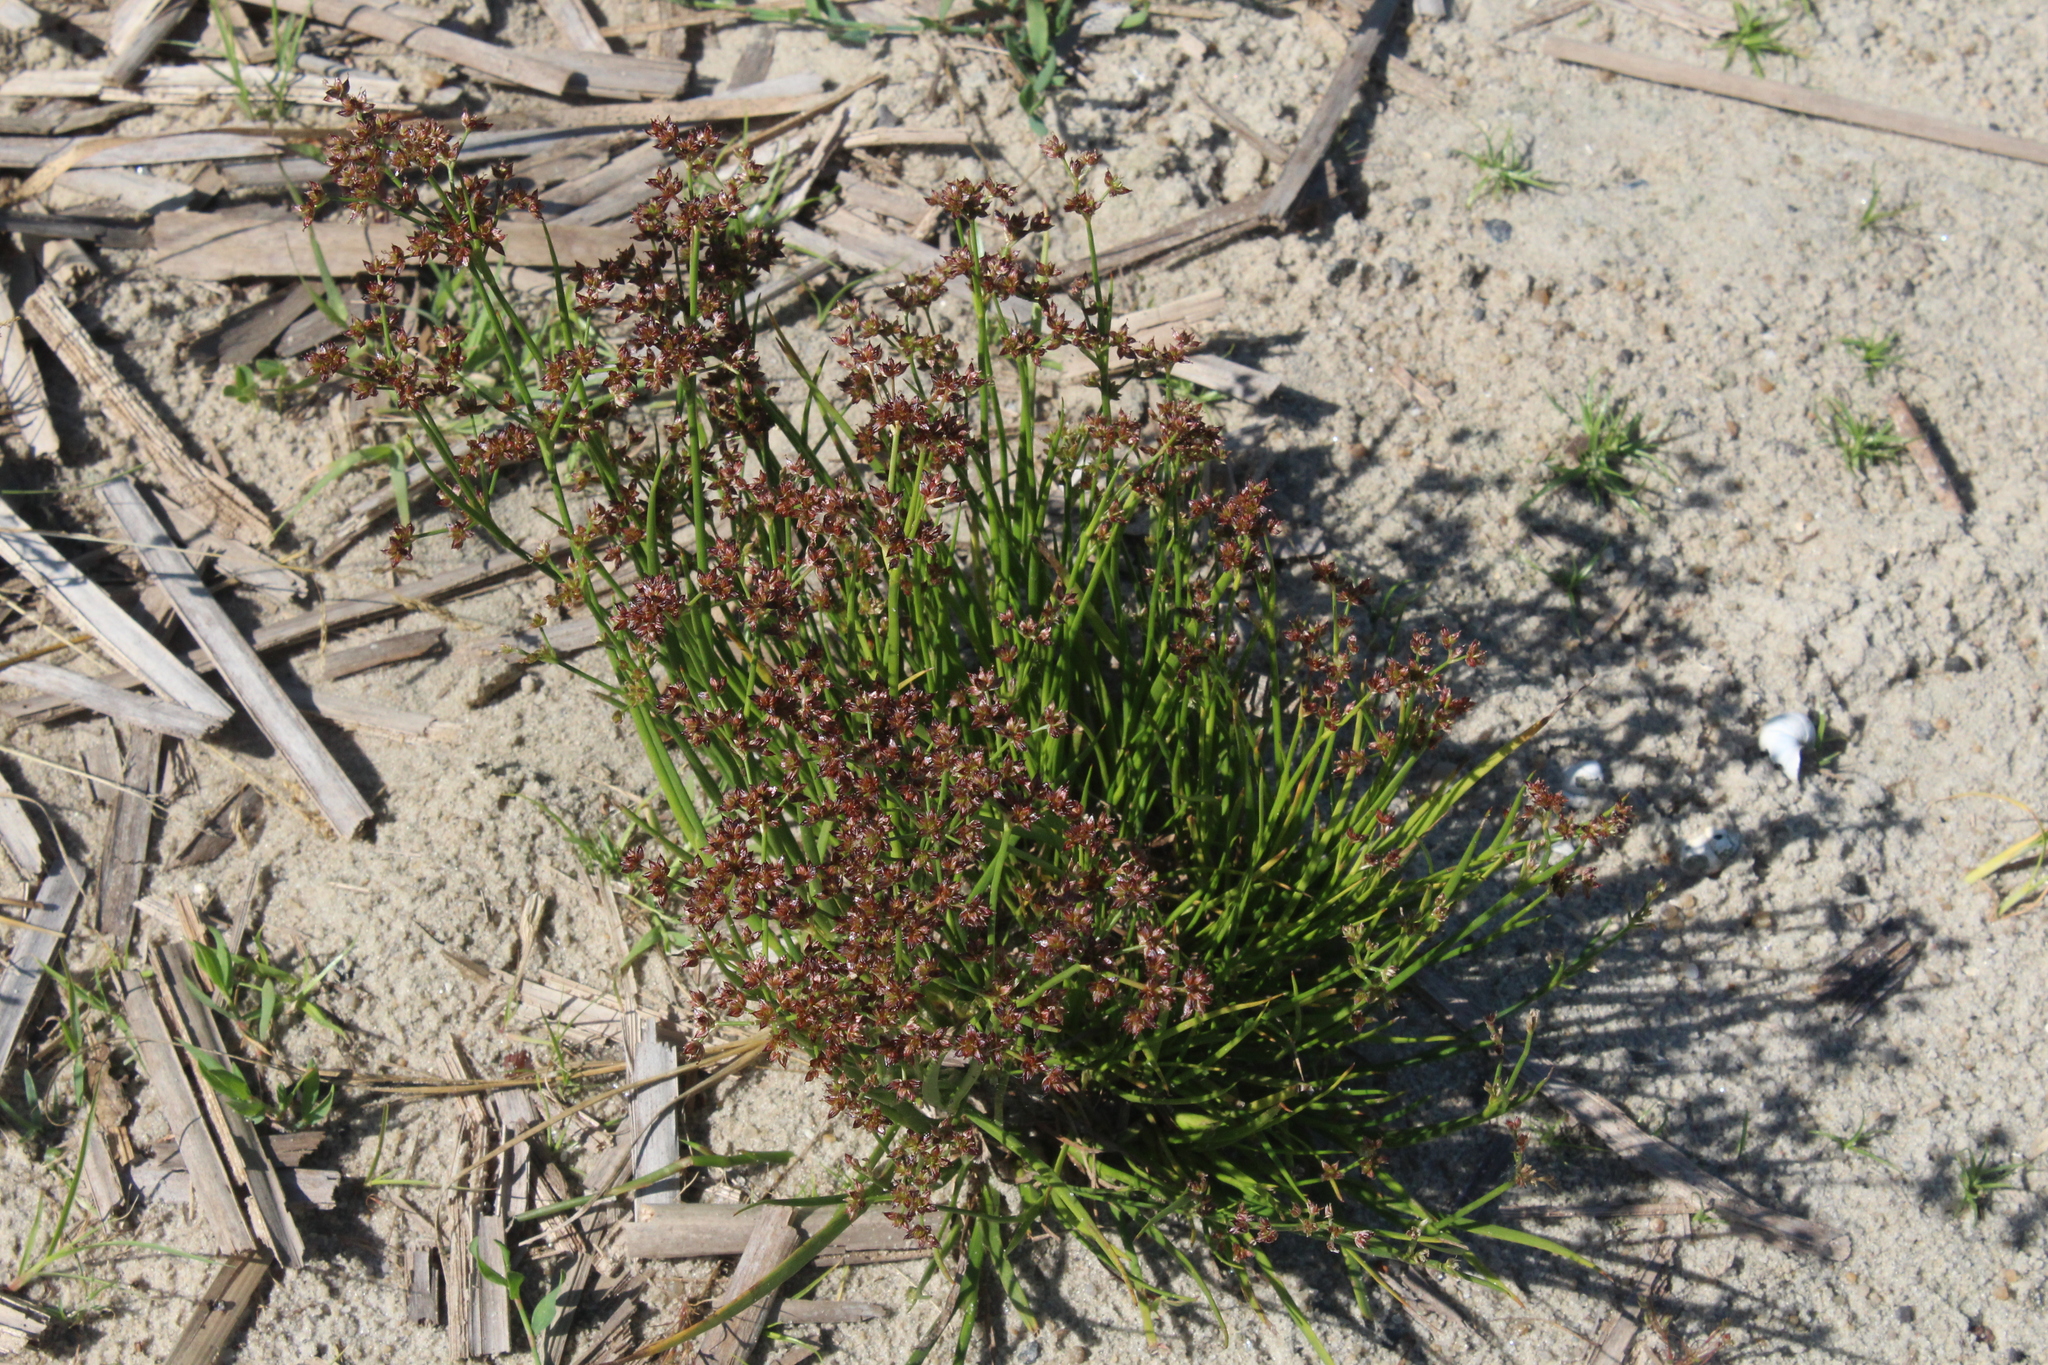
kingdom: Plantae
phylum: Tracheophyta
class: Liliopsida
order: Poales
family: Juncaceae
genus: Juncus
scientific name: Juncus articulatus
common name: Jointed rush
